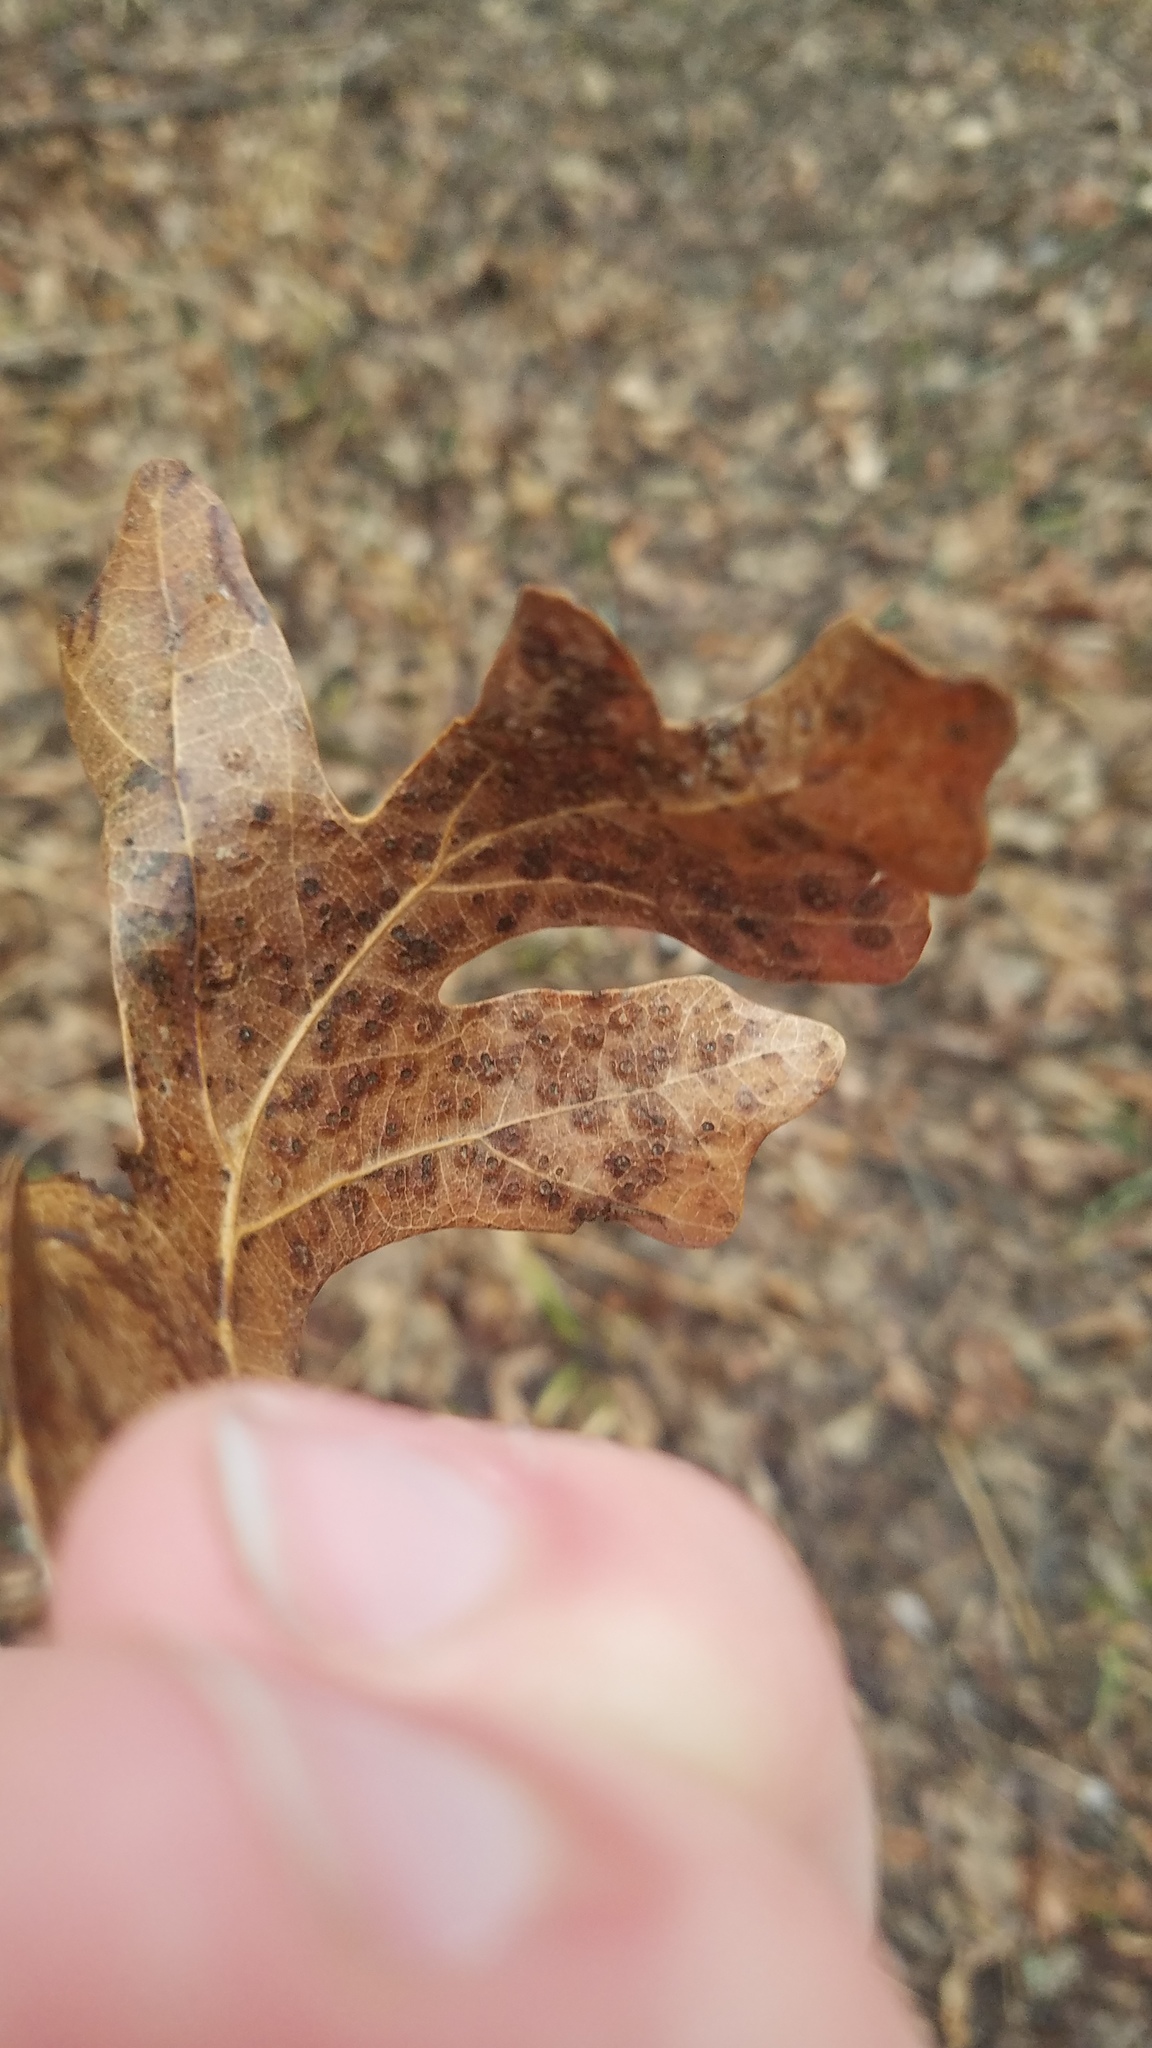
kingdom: Animalia
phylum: Arthropoda
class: Insecta
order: Hymenoptera
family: Cynipidae
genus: Neuroterus
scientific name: Neuroterus
